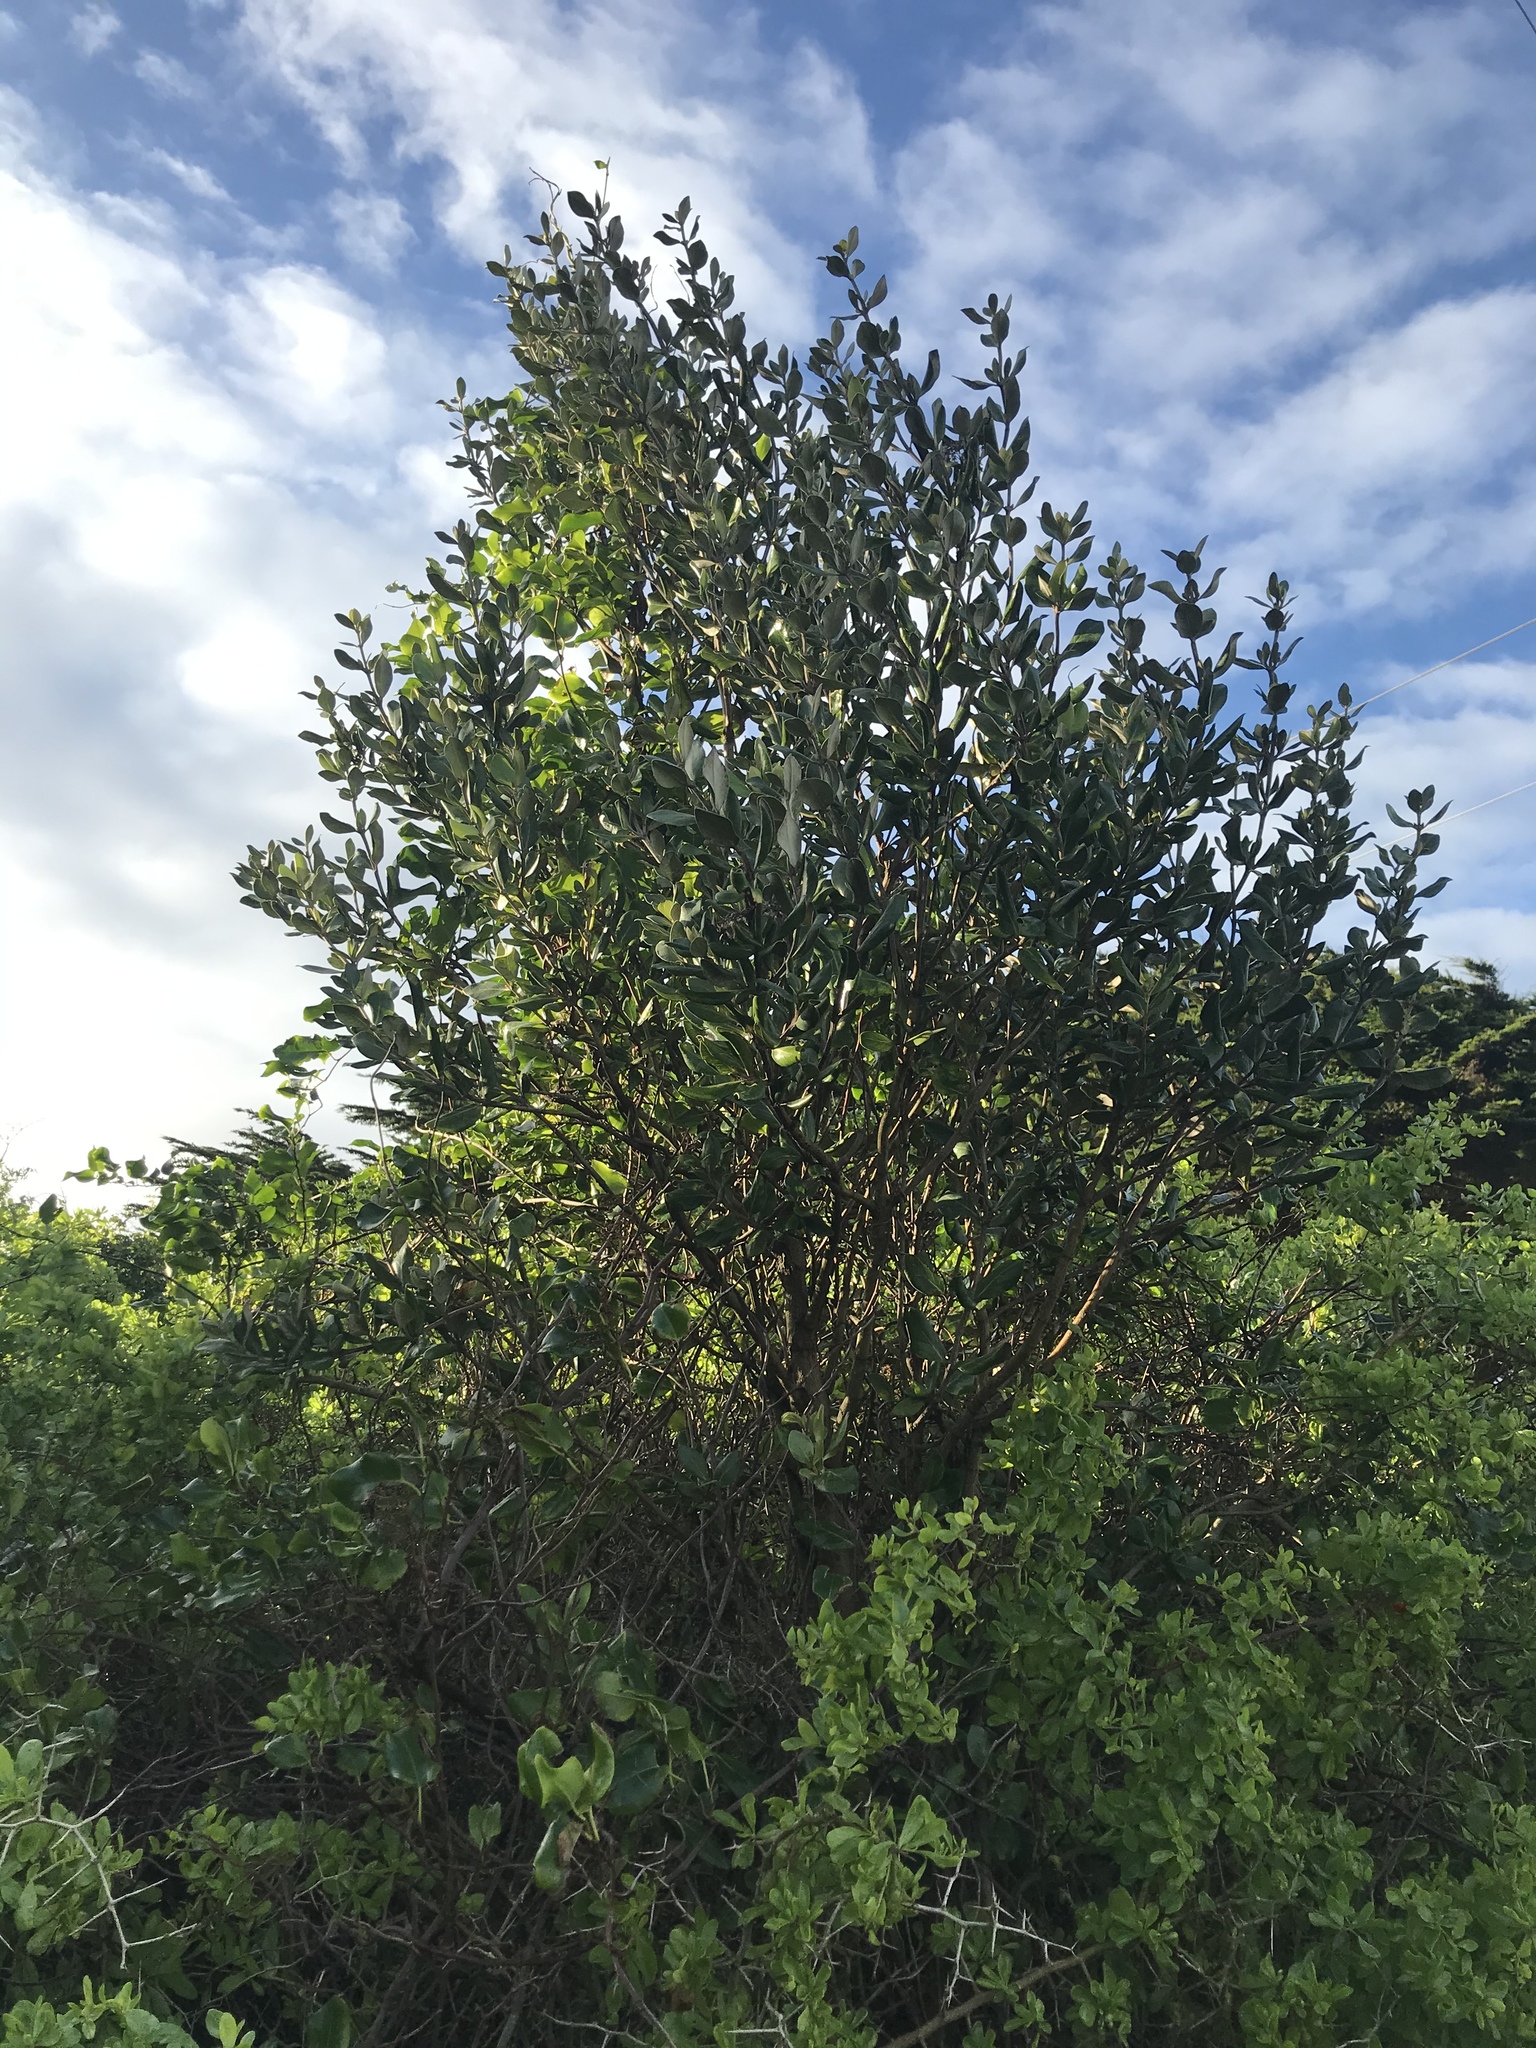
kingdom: Plantae
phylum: Tracheophyta
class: Magnoliopsida
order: Asterales
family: Asteraceae
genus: Olearia
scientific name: Olearia traversiorum
